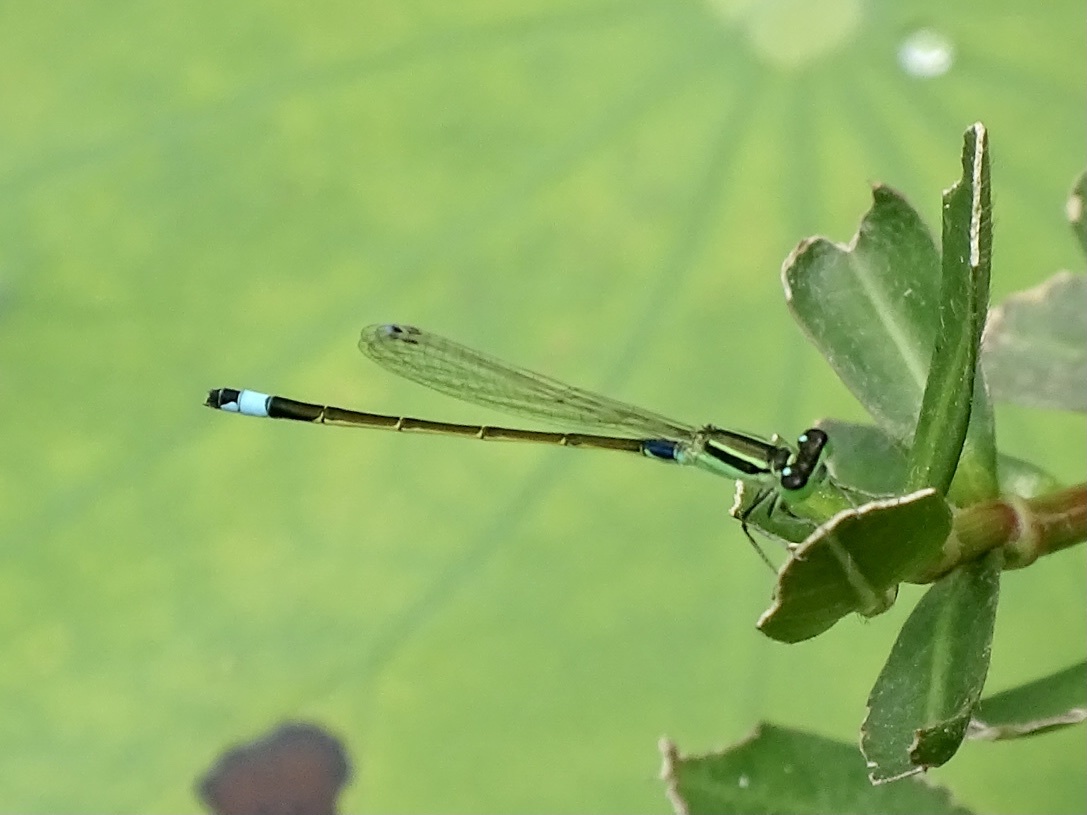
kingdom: Animalia
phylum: Arthropoda
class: Insecta
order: Odonata
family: Coenagrionidae
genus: Ischnura
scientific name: Ischnura senegalensis
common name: Tropical bluetail
